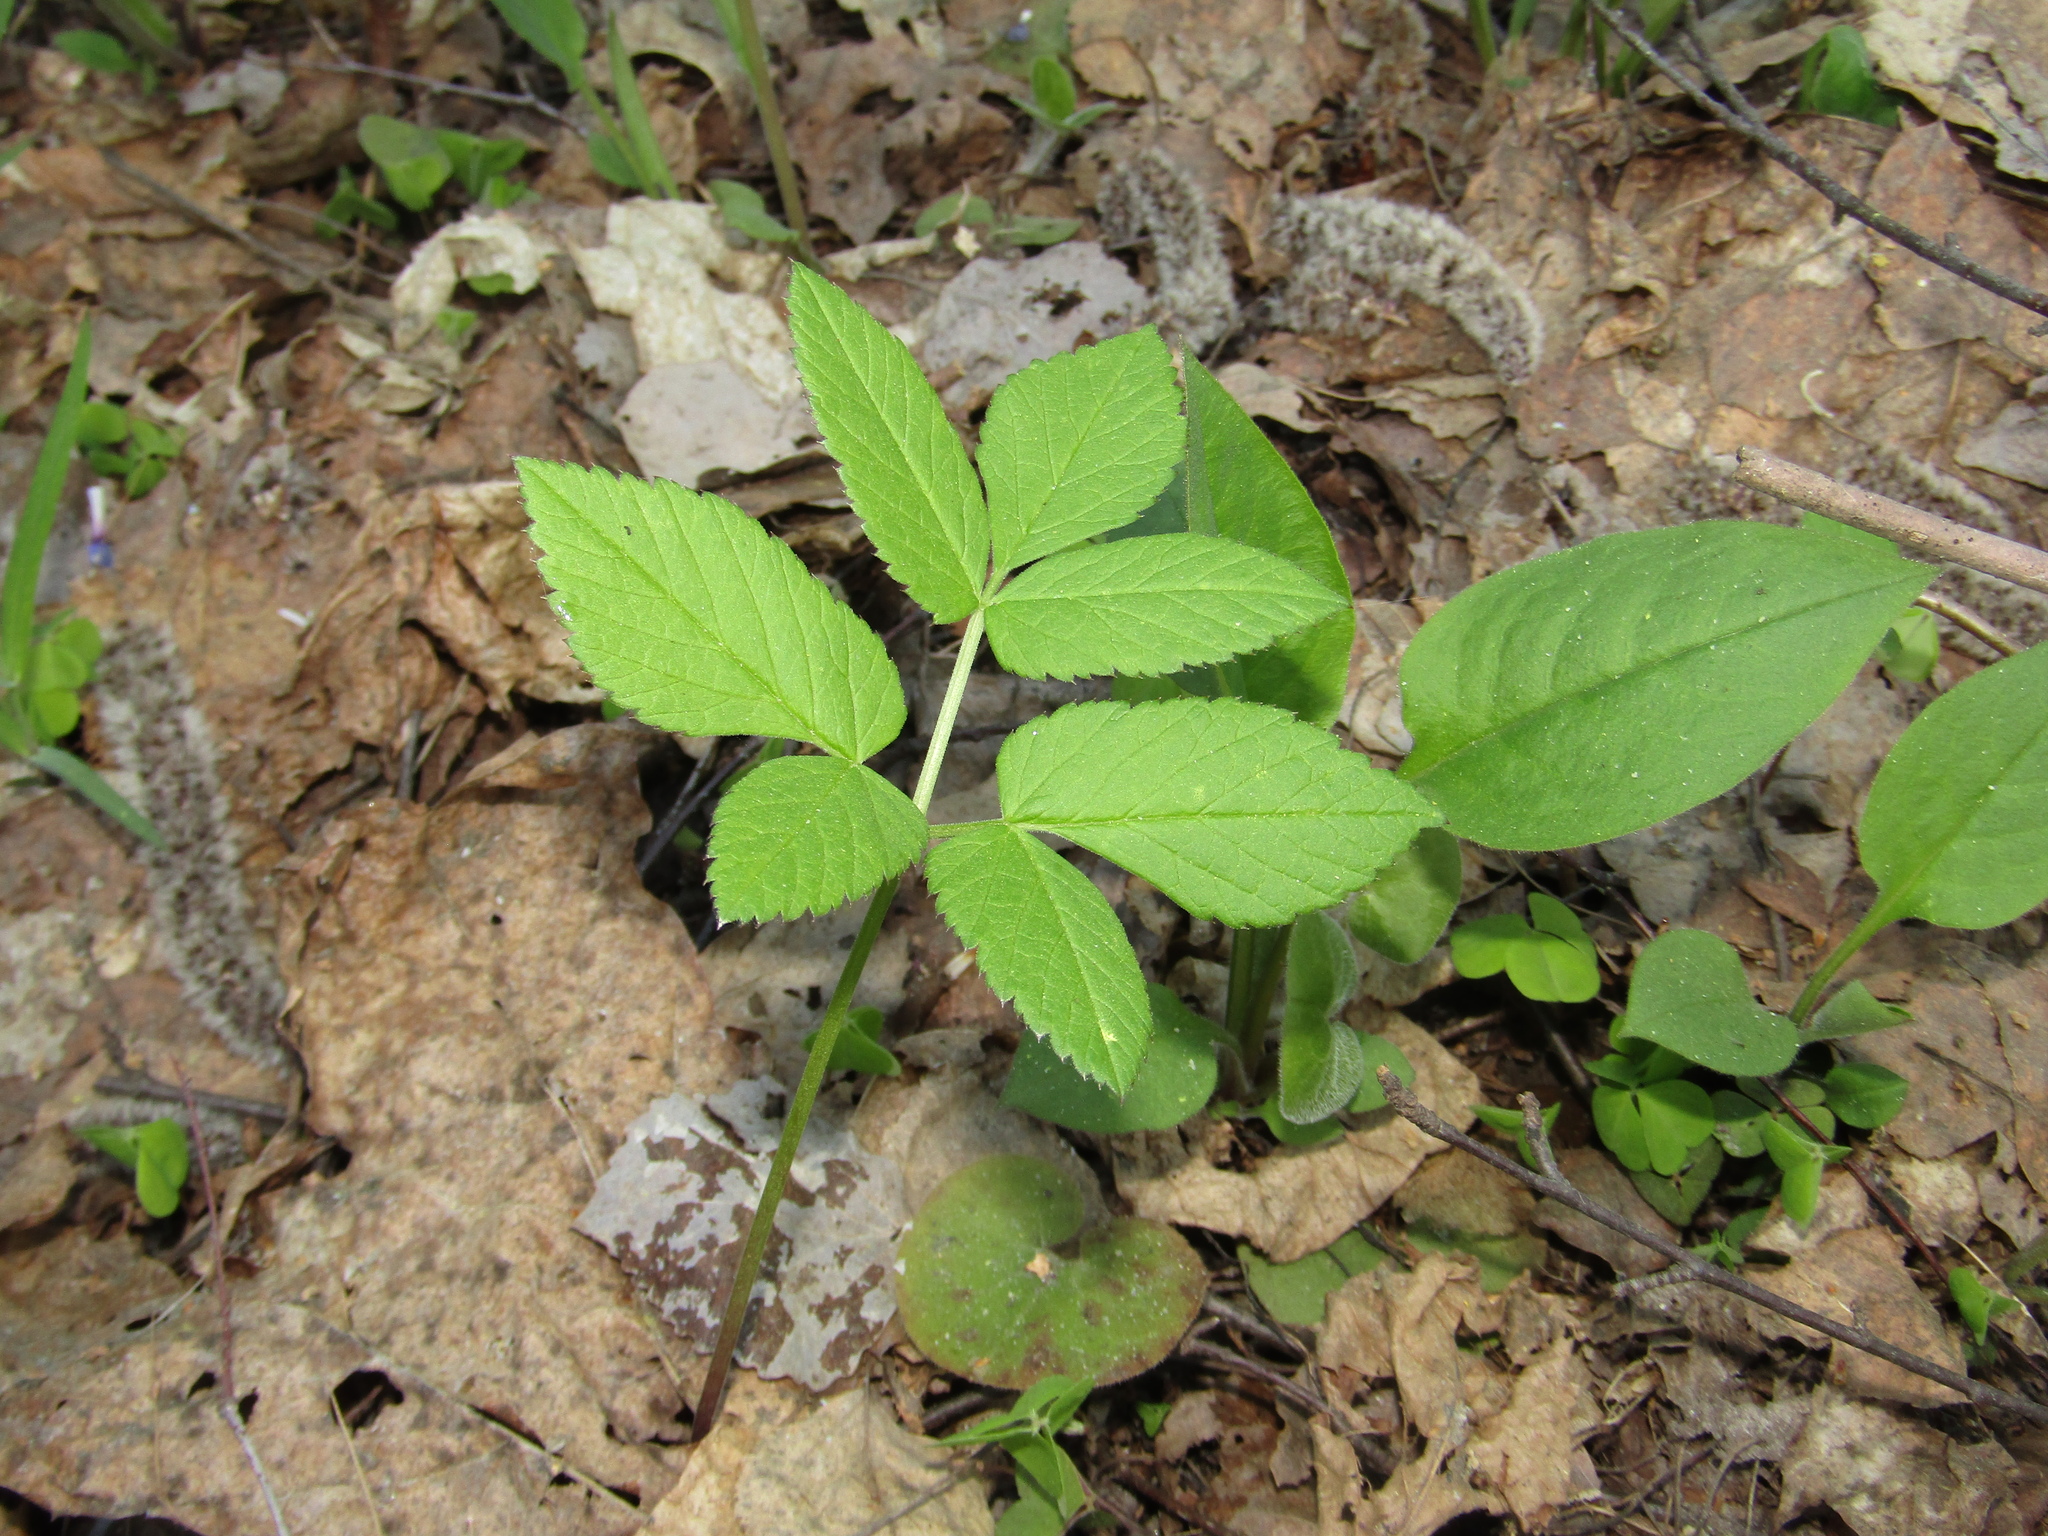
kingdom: Plantae
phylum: Tracheophyta
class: Magnoliopsida
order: Apiales
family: Apiaceae
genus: Aegopodium
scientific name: Aegopodium podagraria
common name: Ground-elder
